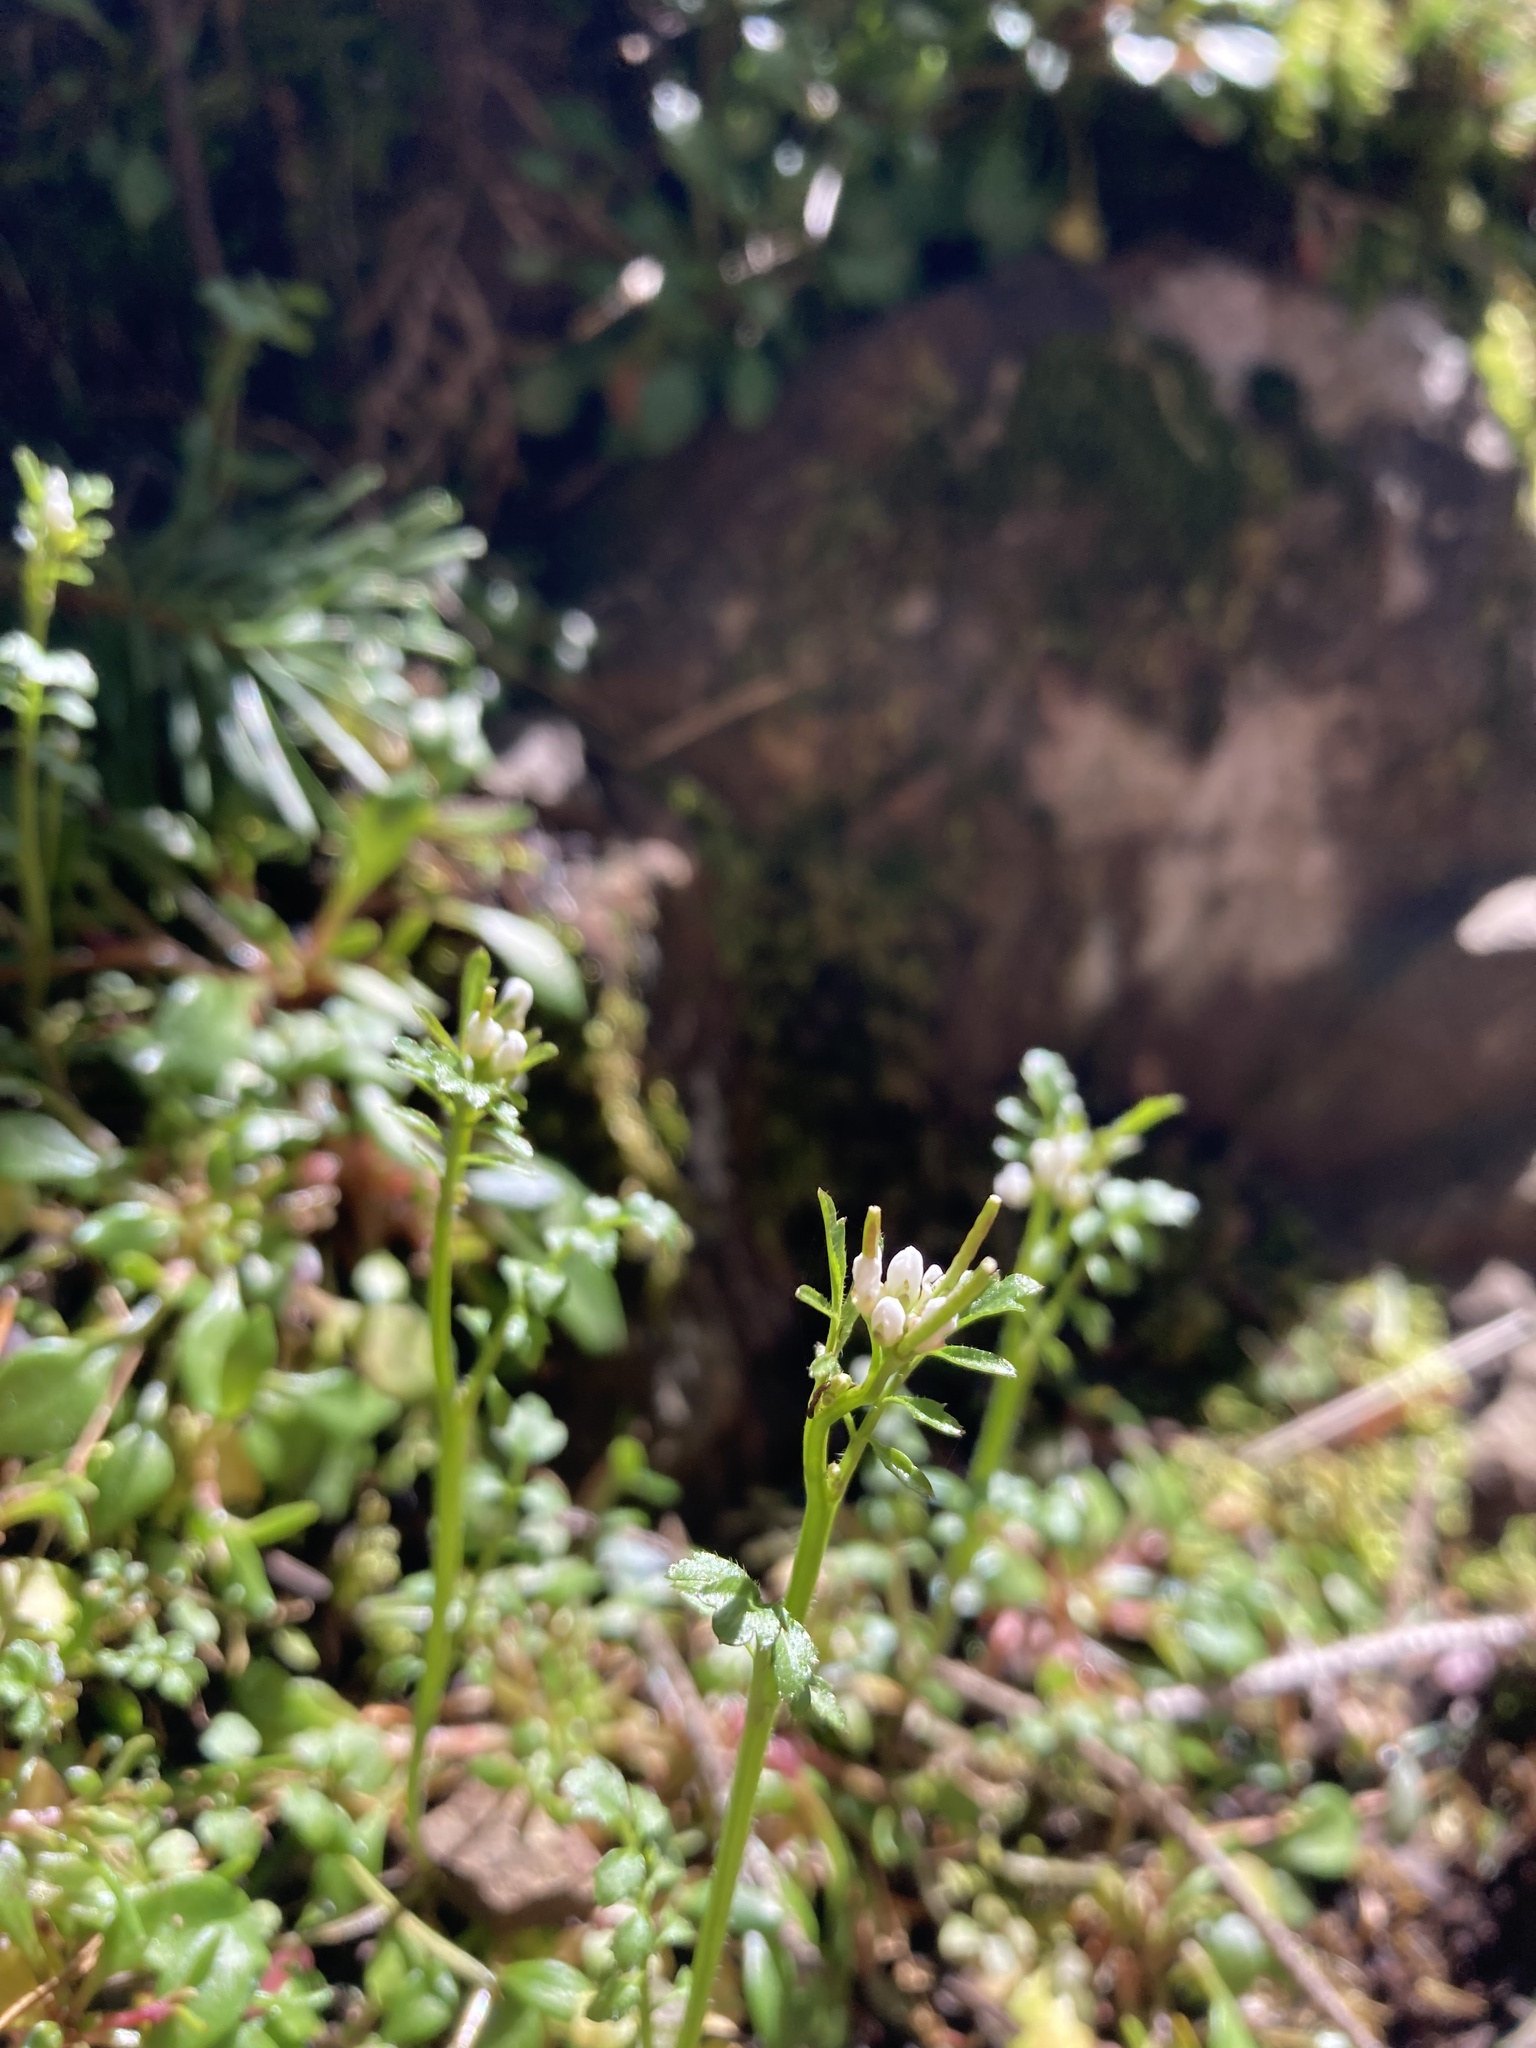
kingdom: Plantae
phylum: Tracheophyta
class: Magnoliopsida
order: Brassicales
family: Brassicaceae
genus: Cardamine
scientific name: Cardamine oligosperma
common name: Idaho bittercress
